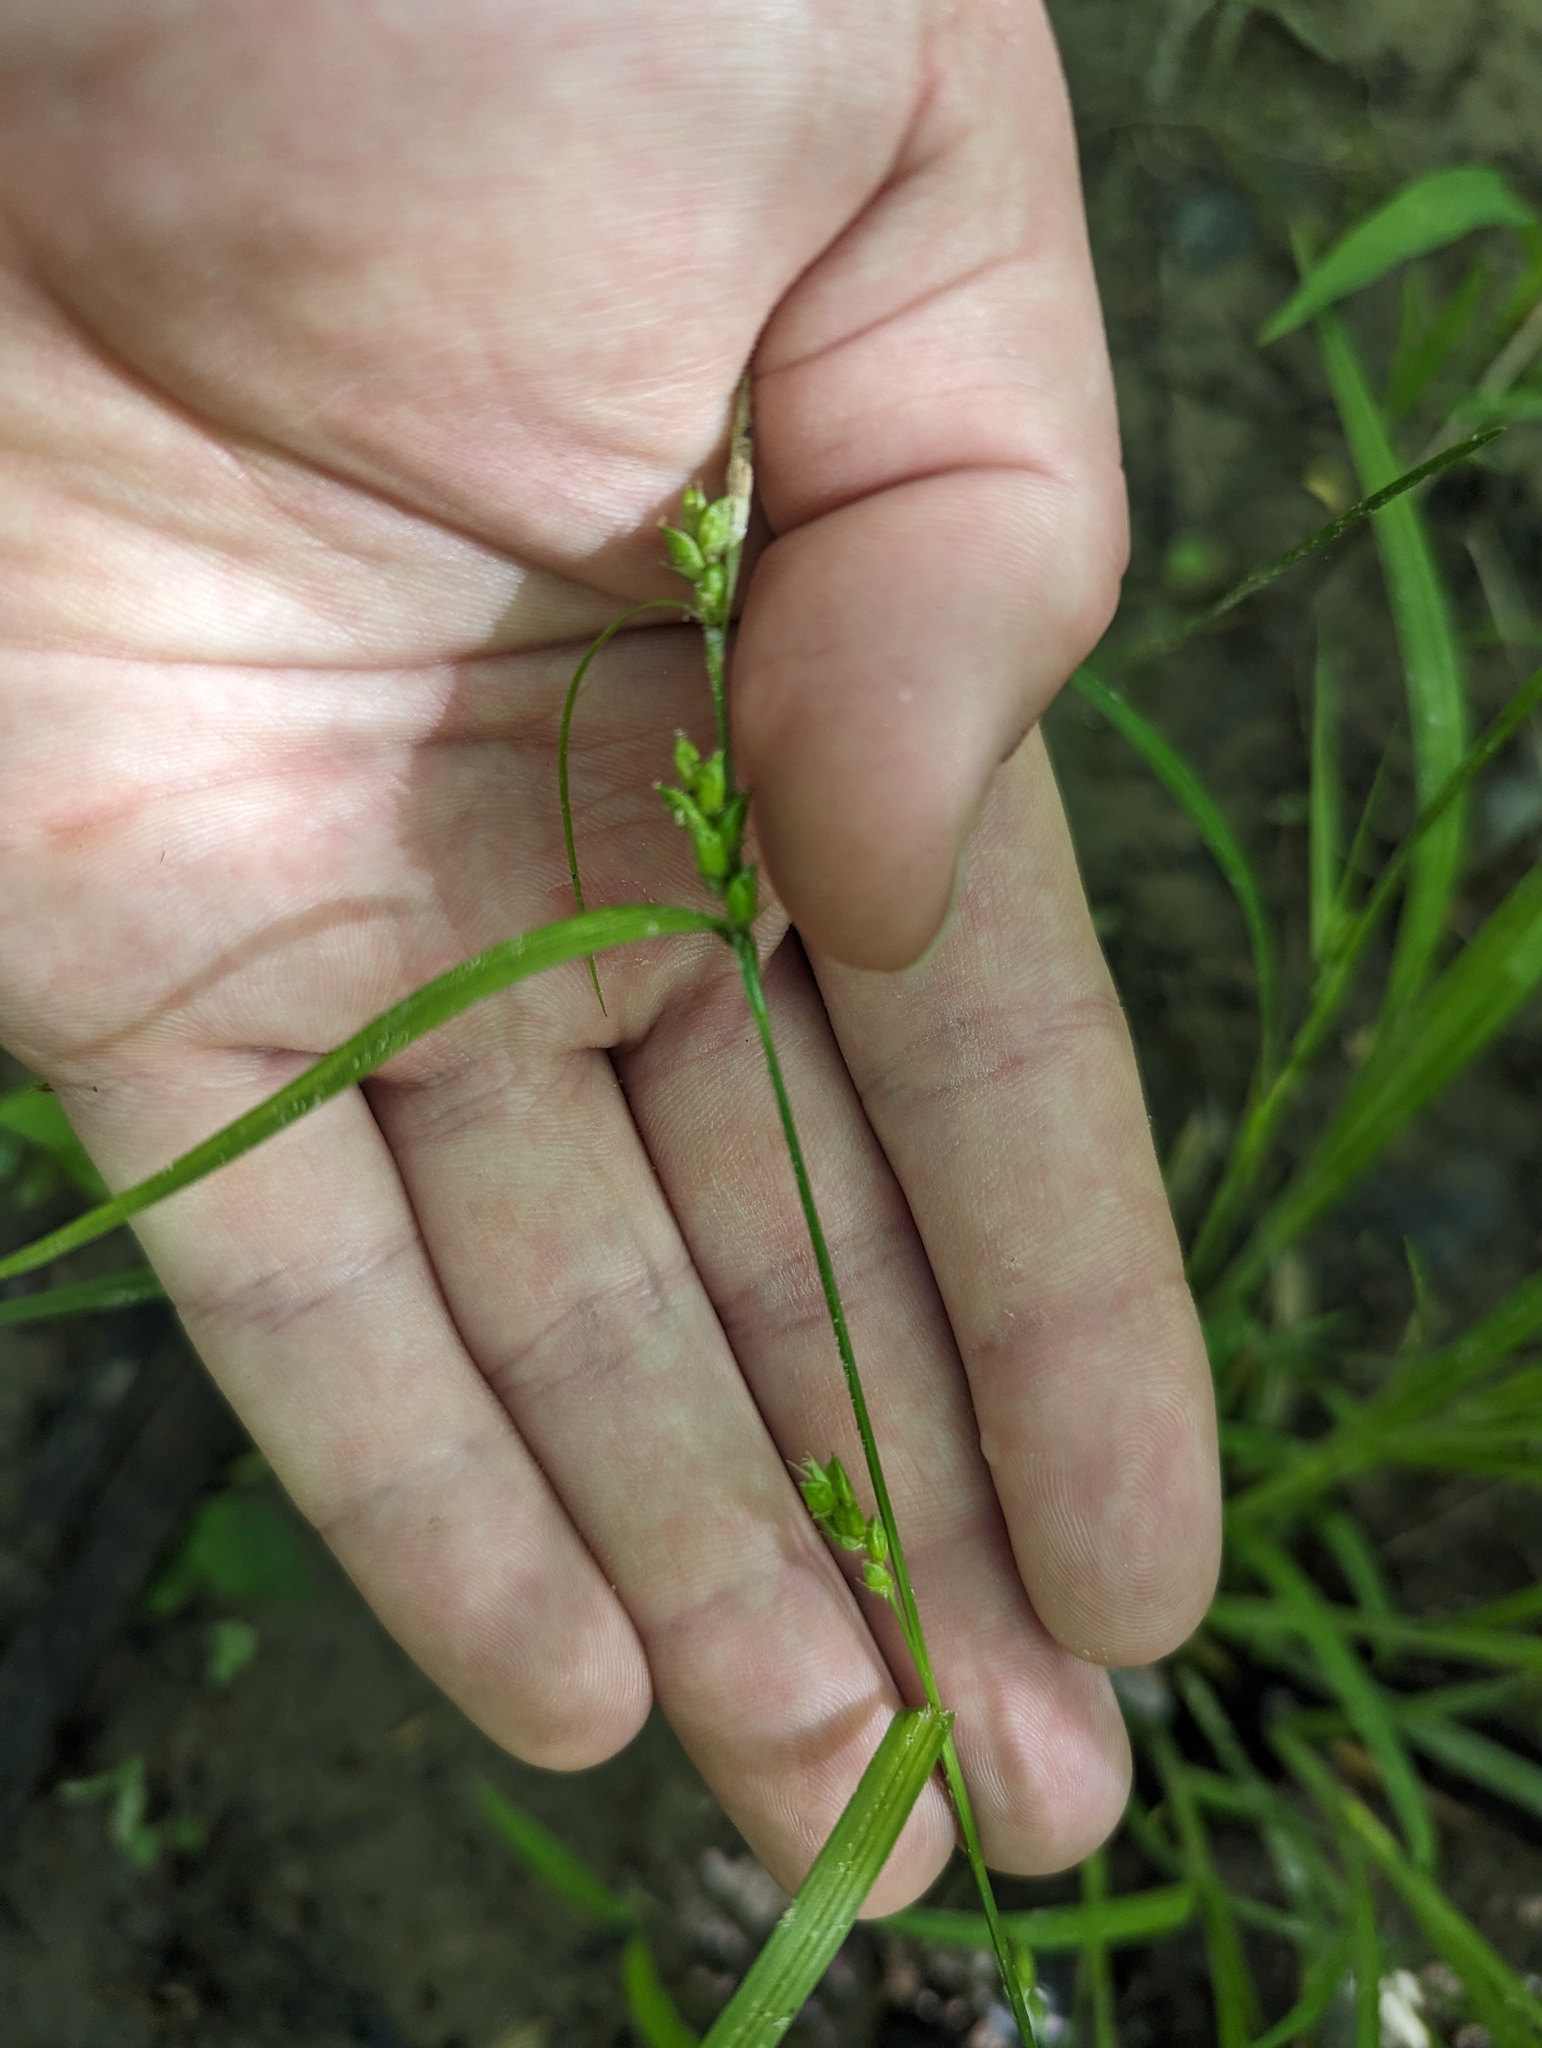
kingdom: Plantae
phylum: Tracheophyta
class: Liliopsida
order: Poales
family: Cyperaceae
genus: Carex
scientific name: Carex amphibola
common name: Amphibious sedge
